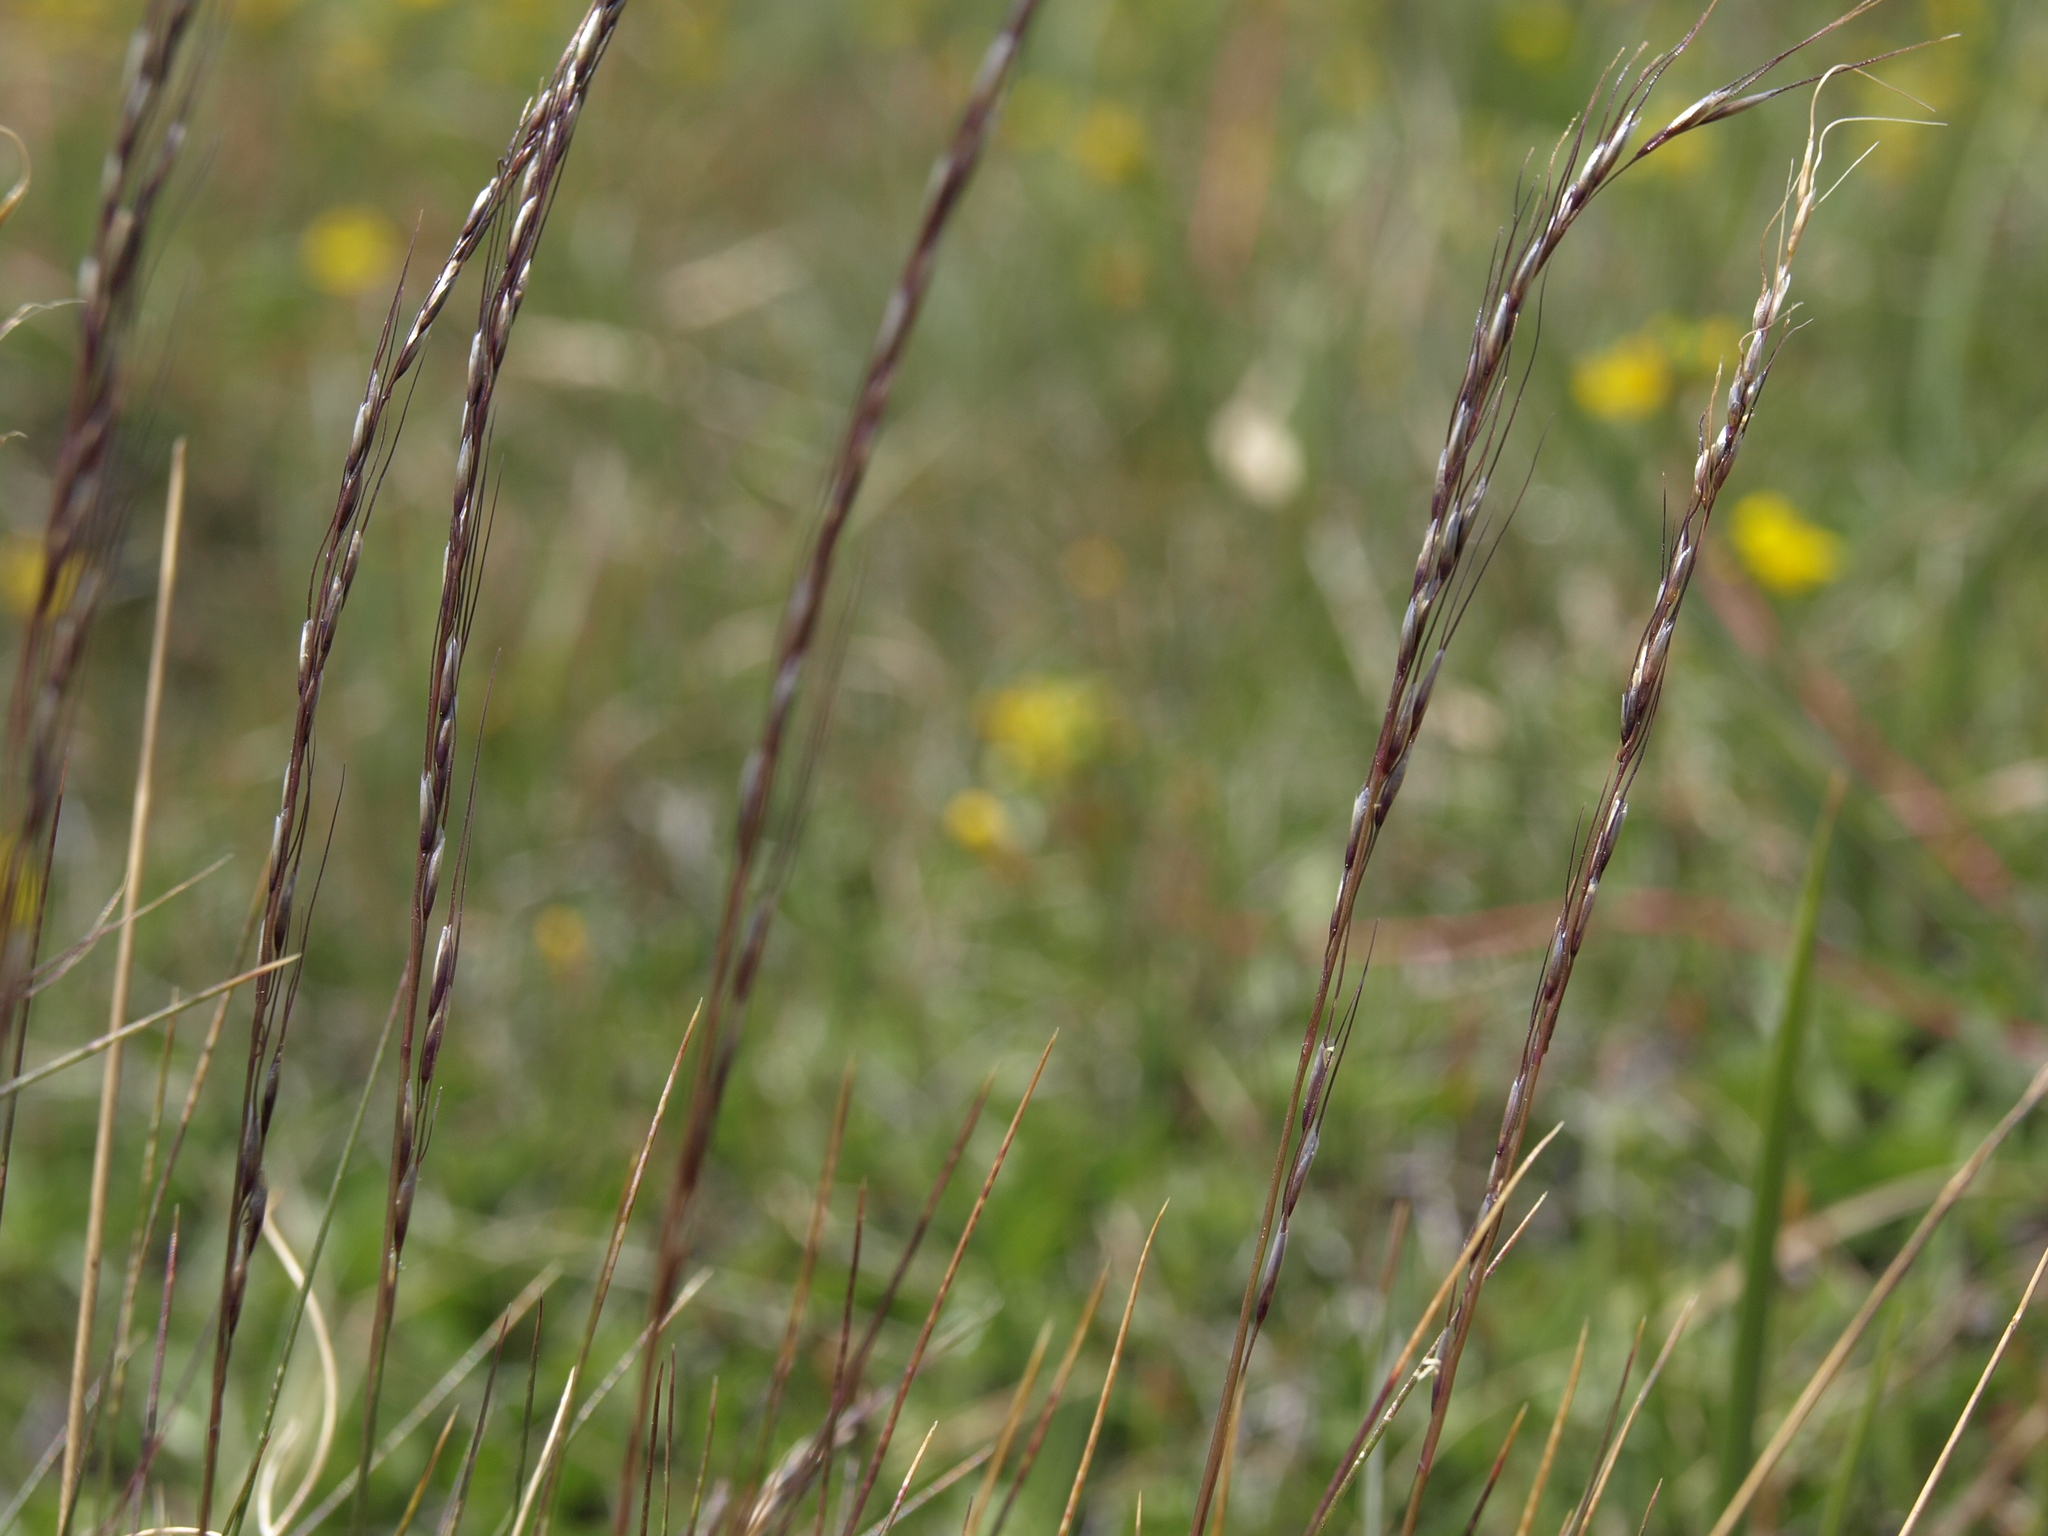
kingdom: Plantae
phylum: Tracheophyta
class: Liliopsida
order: Poales
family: Poaceae
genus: Ptilagrostiella
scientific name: Ptilagrostiella kingii
